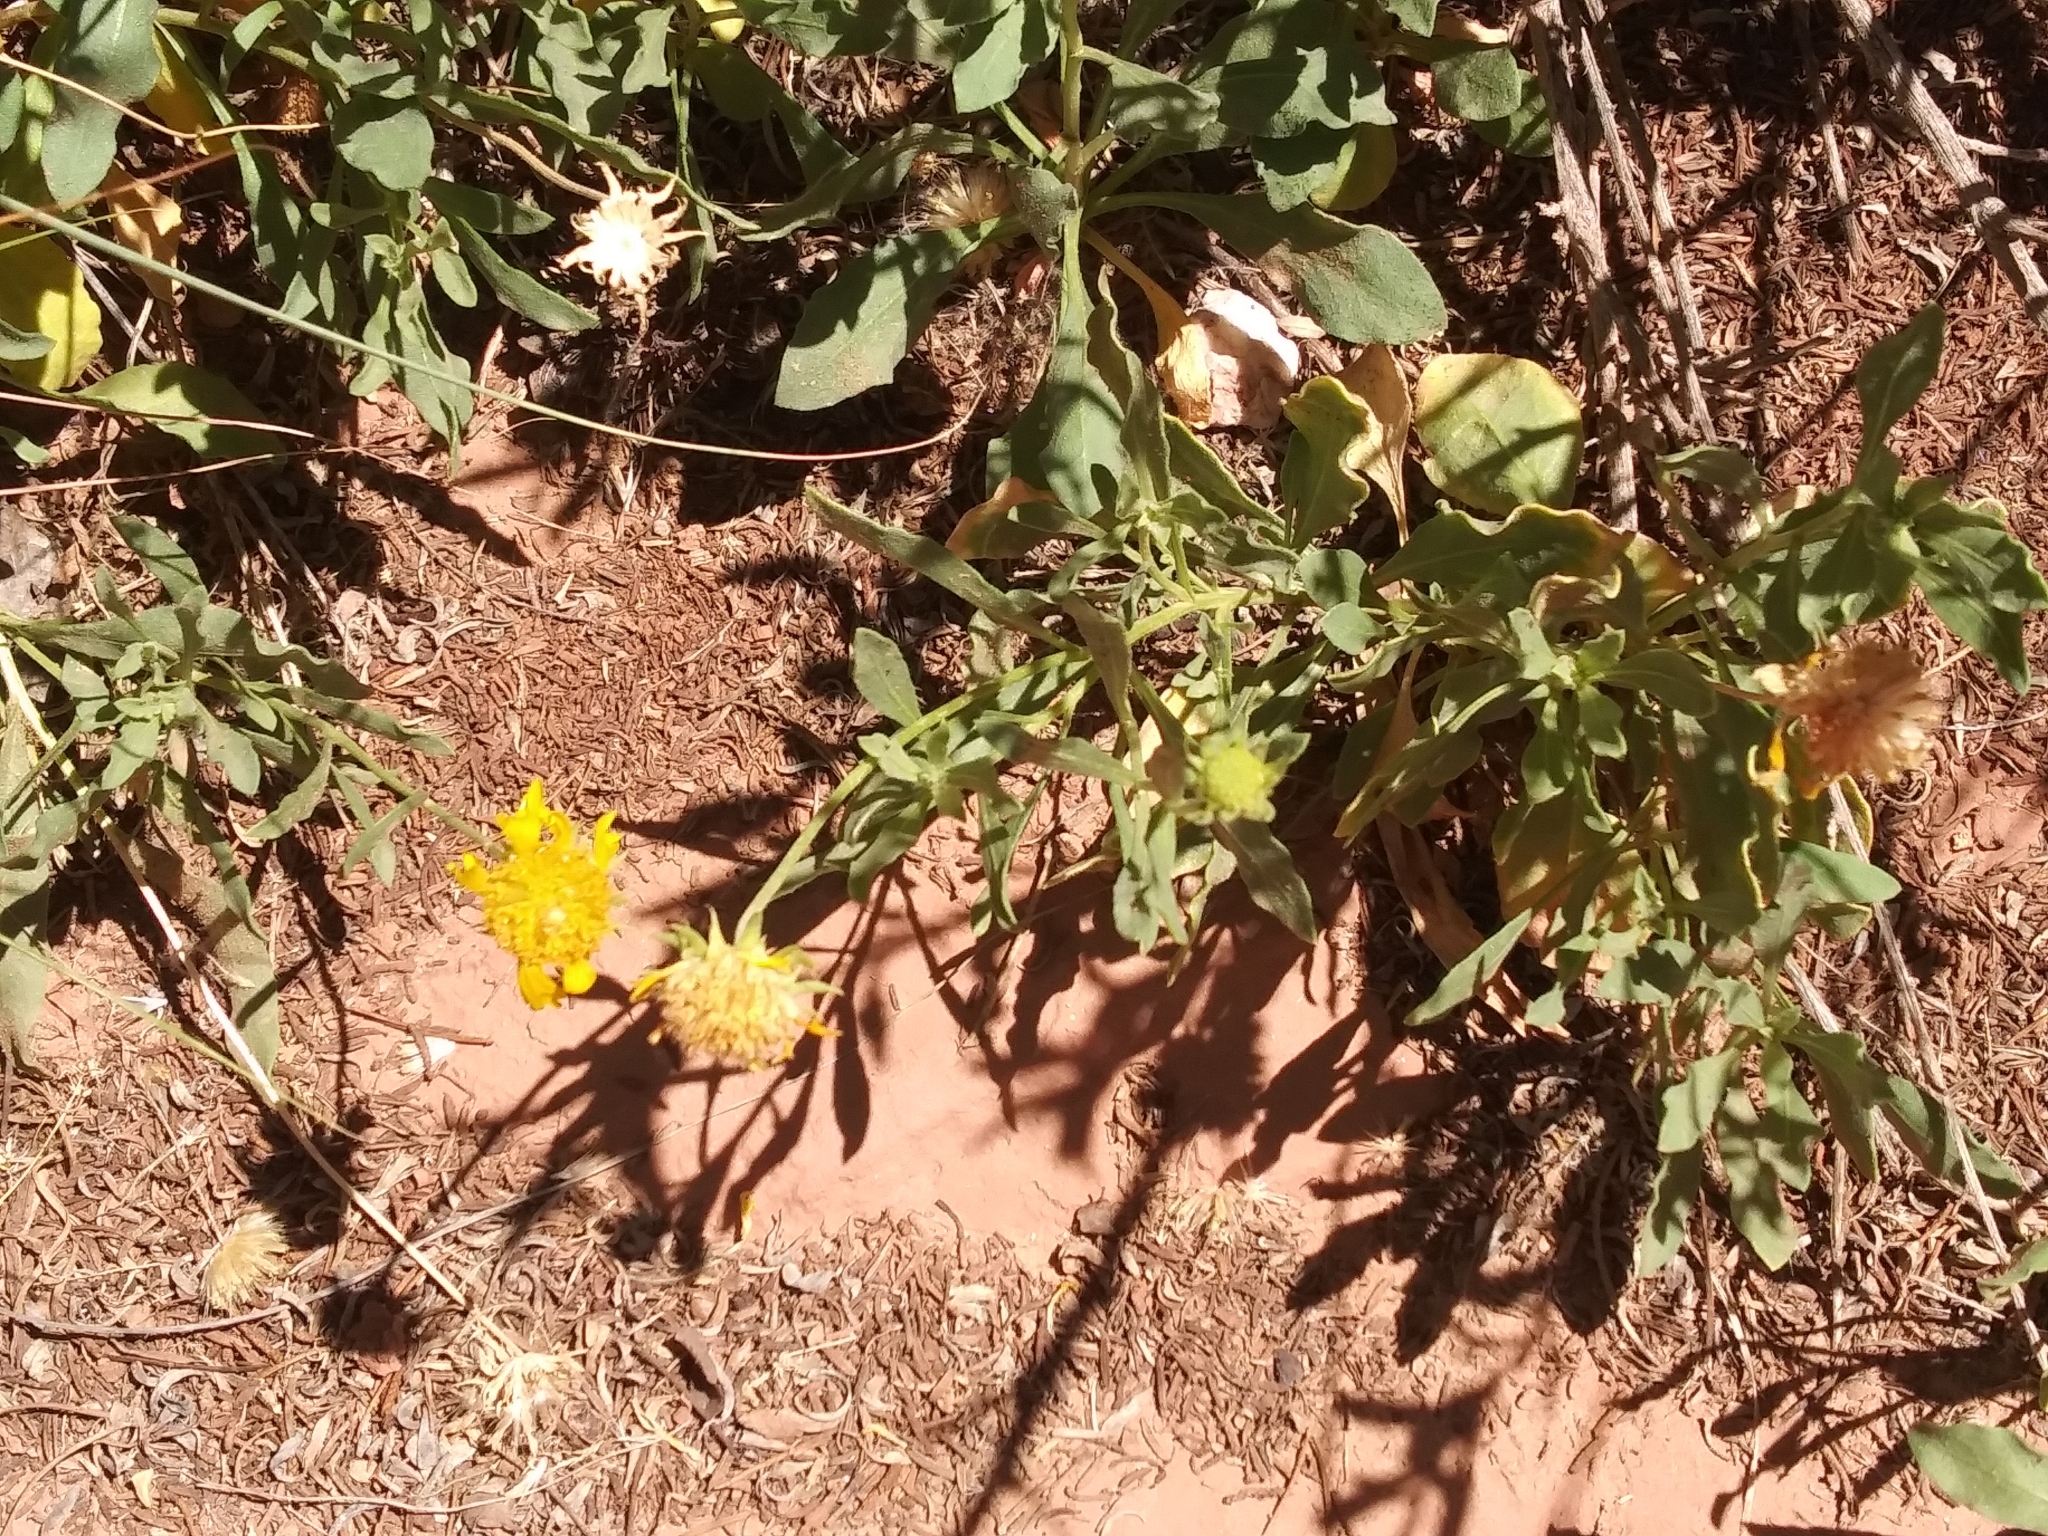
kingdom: Plantae
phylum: Tracheophyta
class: Magnoliopsida
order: Asterales
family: Asteraceae
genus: Gaillardia
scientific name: Gaillardia spathulata
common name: Basin blanket-flower
